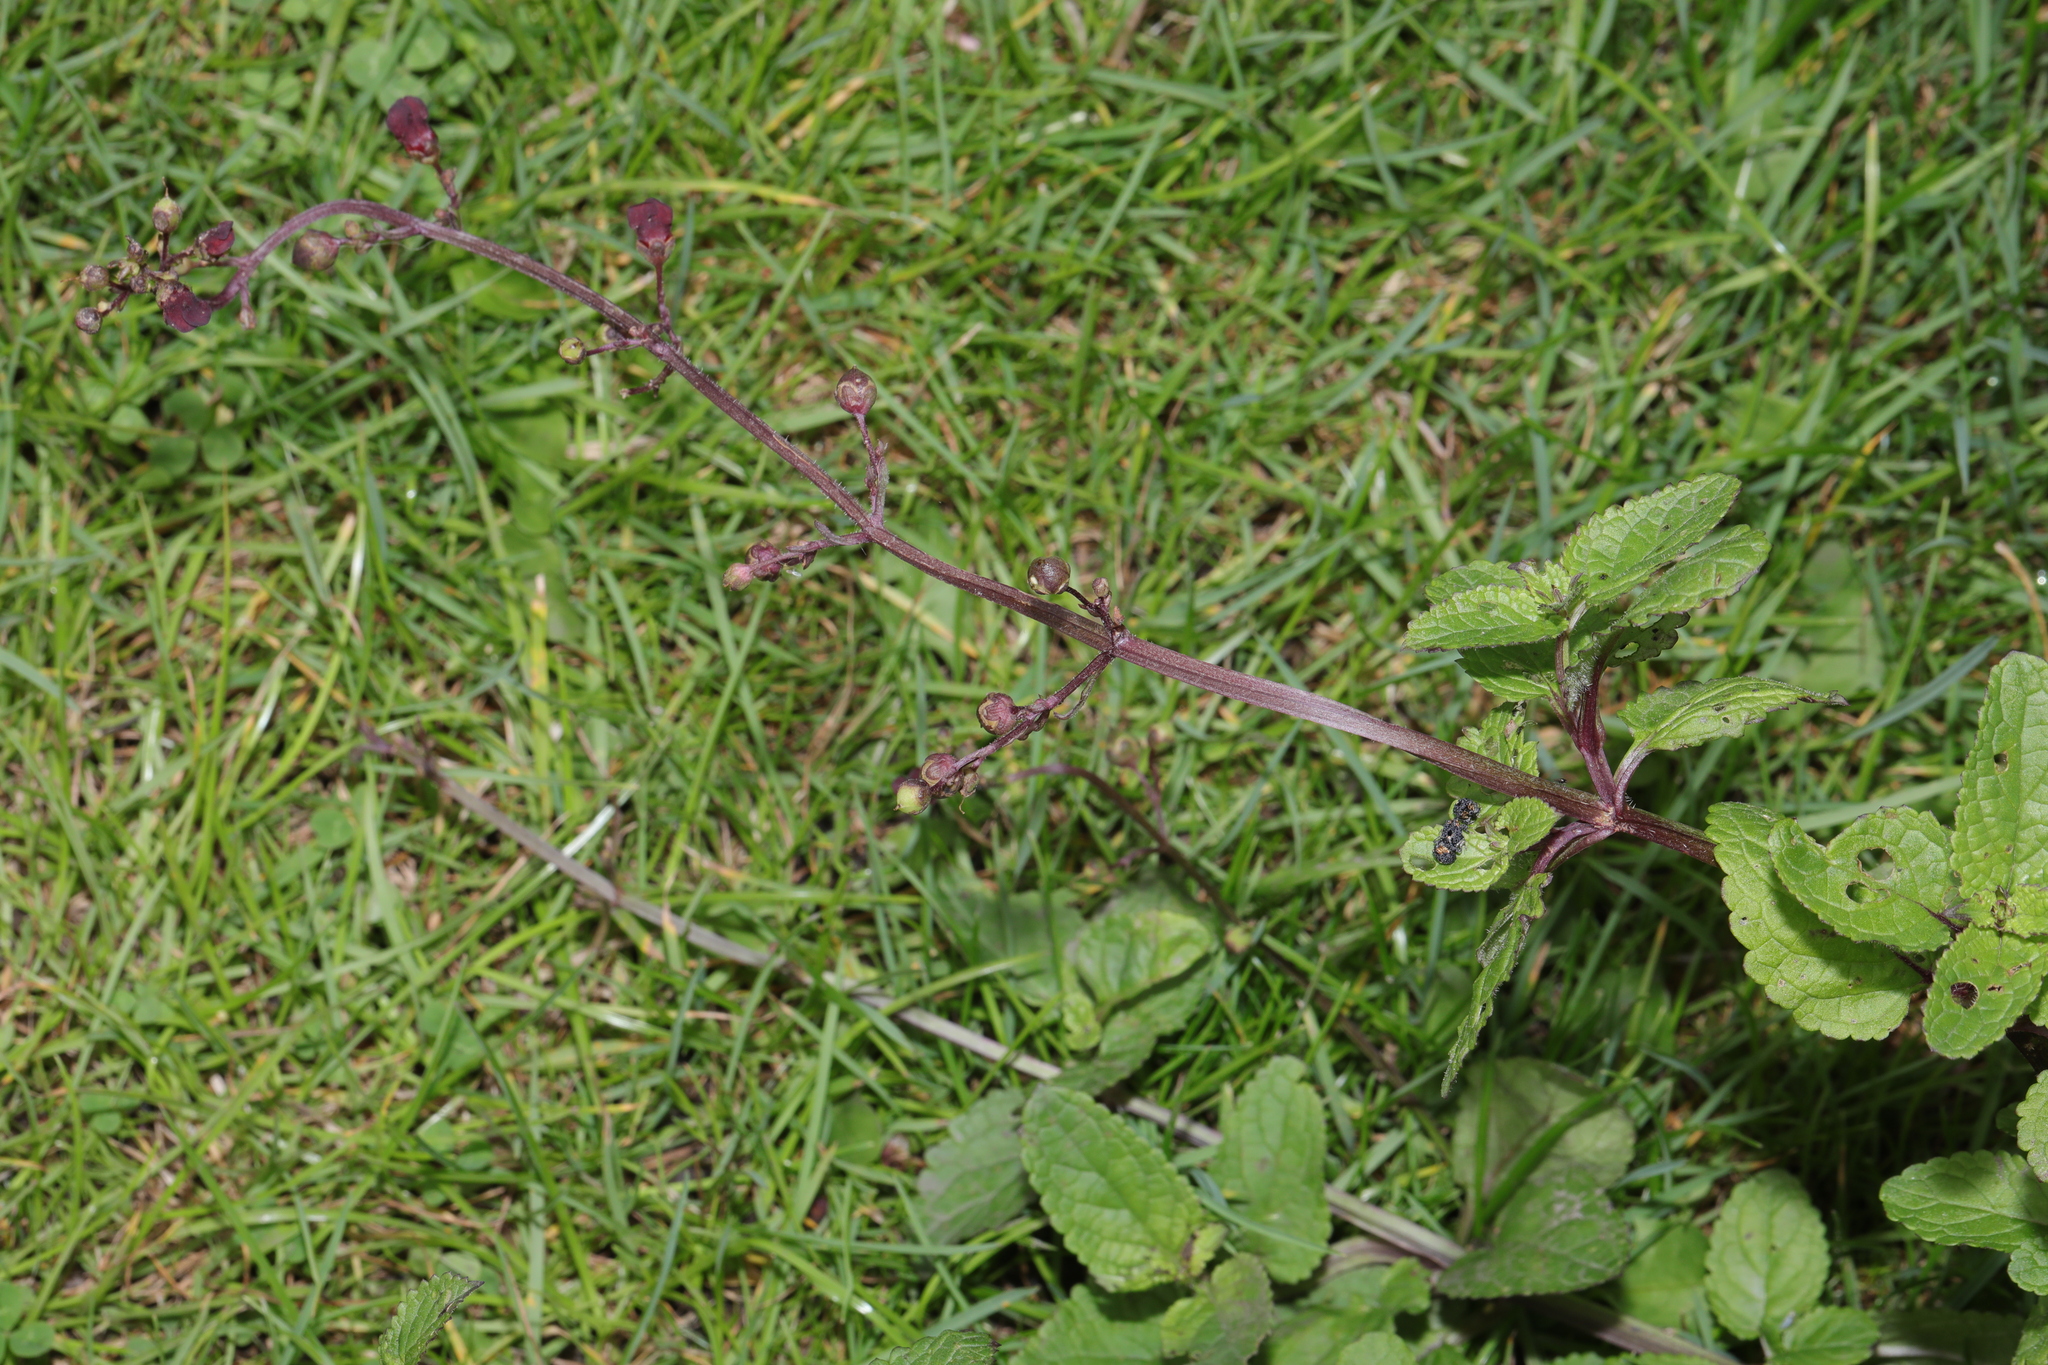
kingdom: Plantae
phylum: Tracheophyta
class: Magnoliopsida
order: Lamiales
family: Scrophulariaceae
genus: Scrophularia
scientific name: Scrophularia auriculata
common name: Water betony
